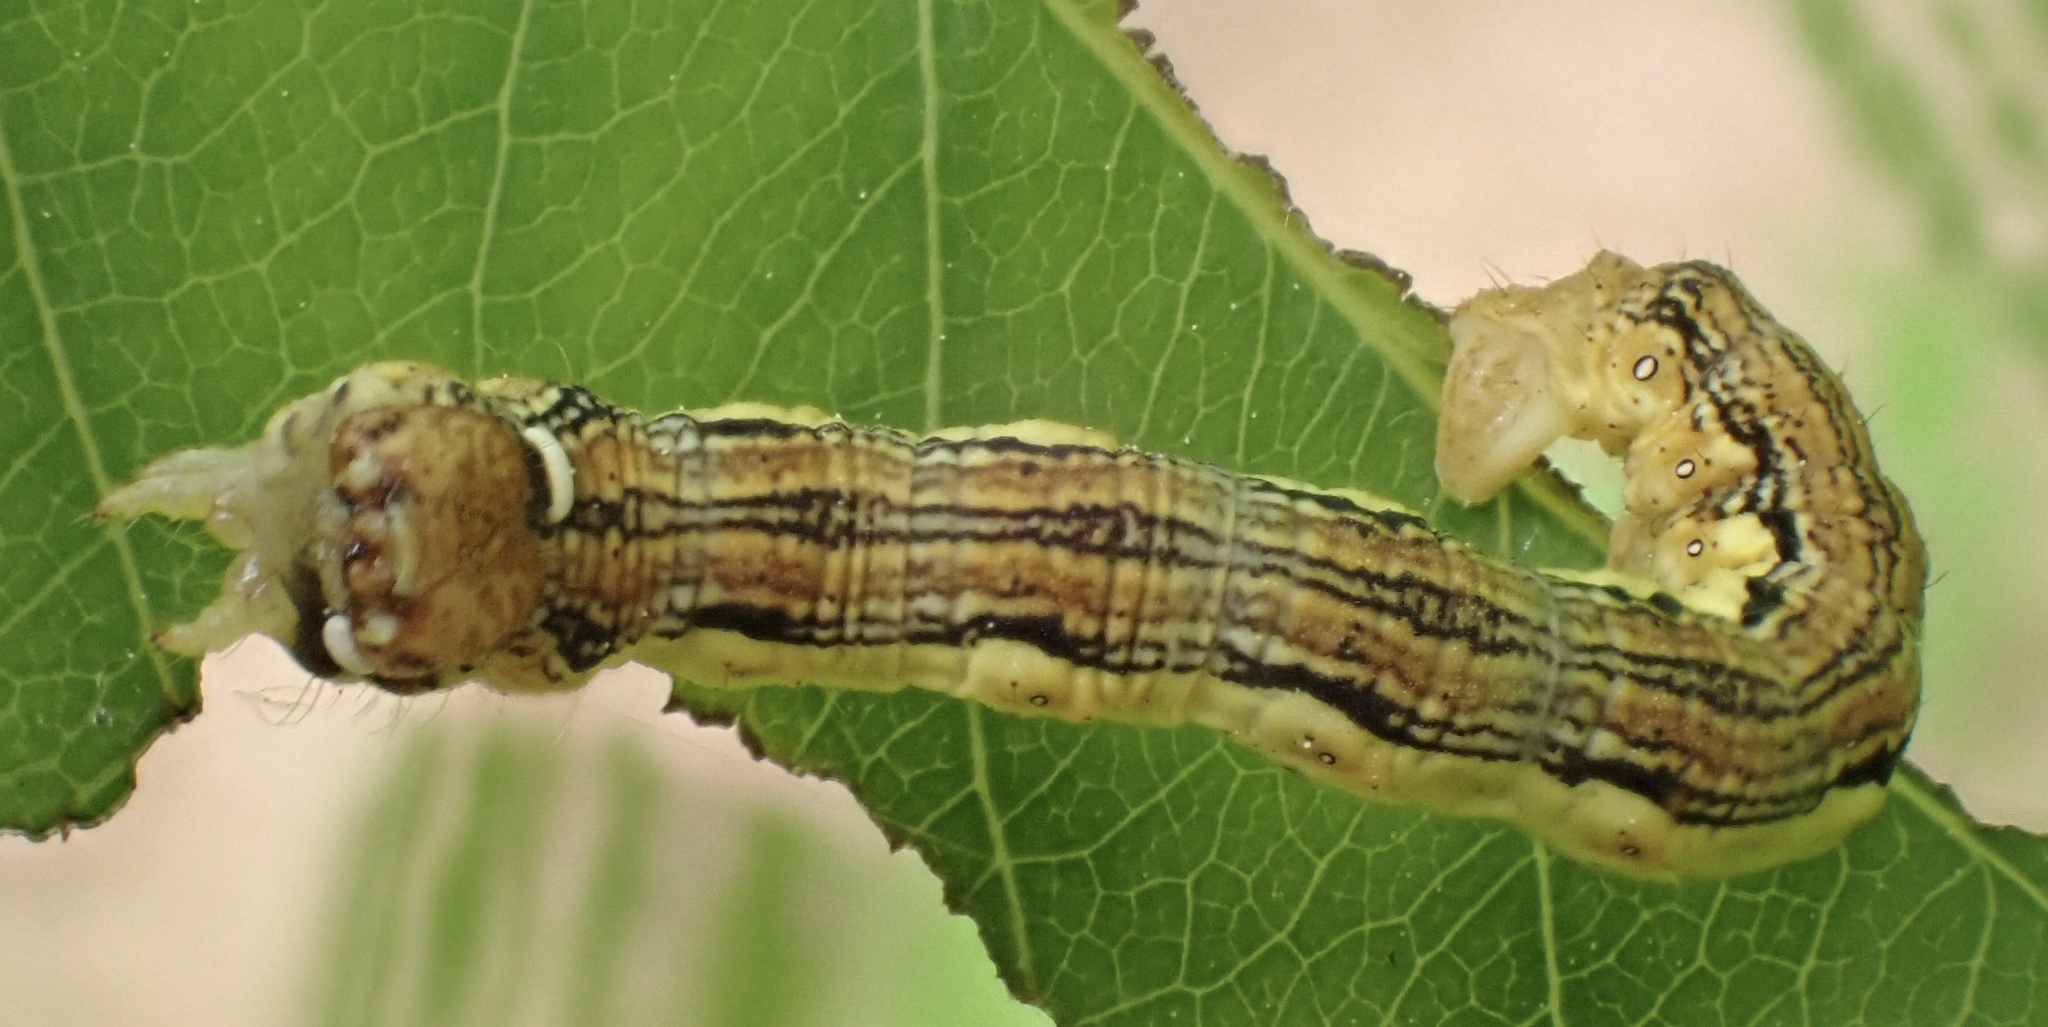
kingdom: Animalia
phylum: Arthropoda
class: Insecta
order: Lepidoptera
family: Geometridae
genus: Erannis
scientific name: Erannis defoliaria
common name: Mottled umber
